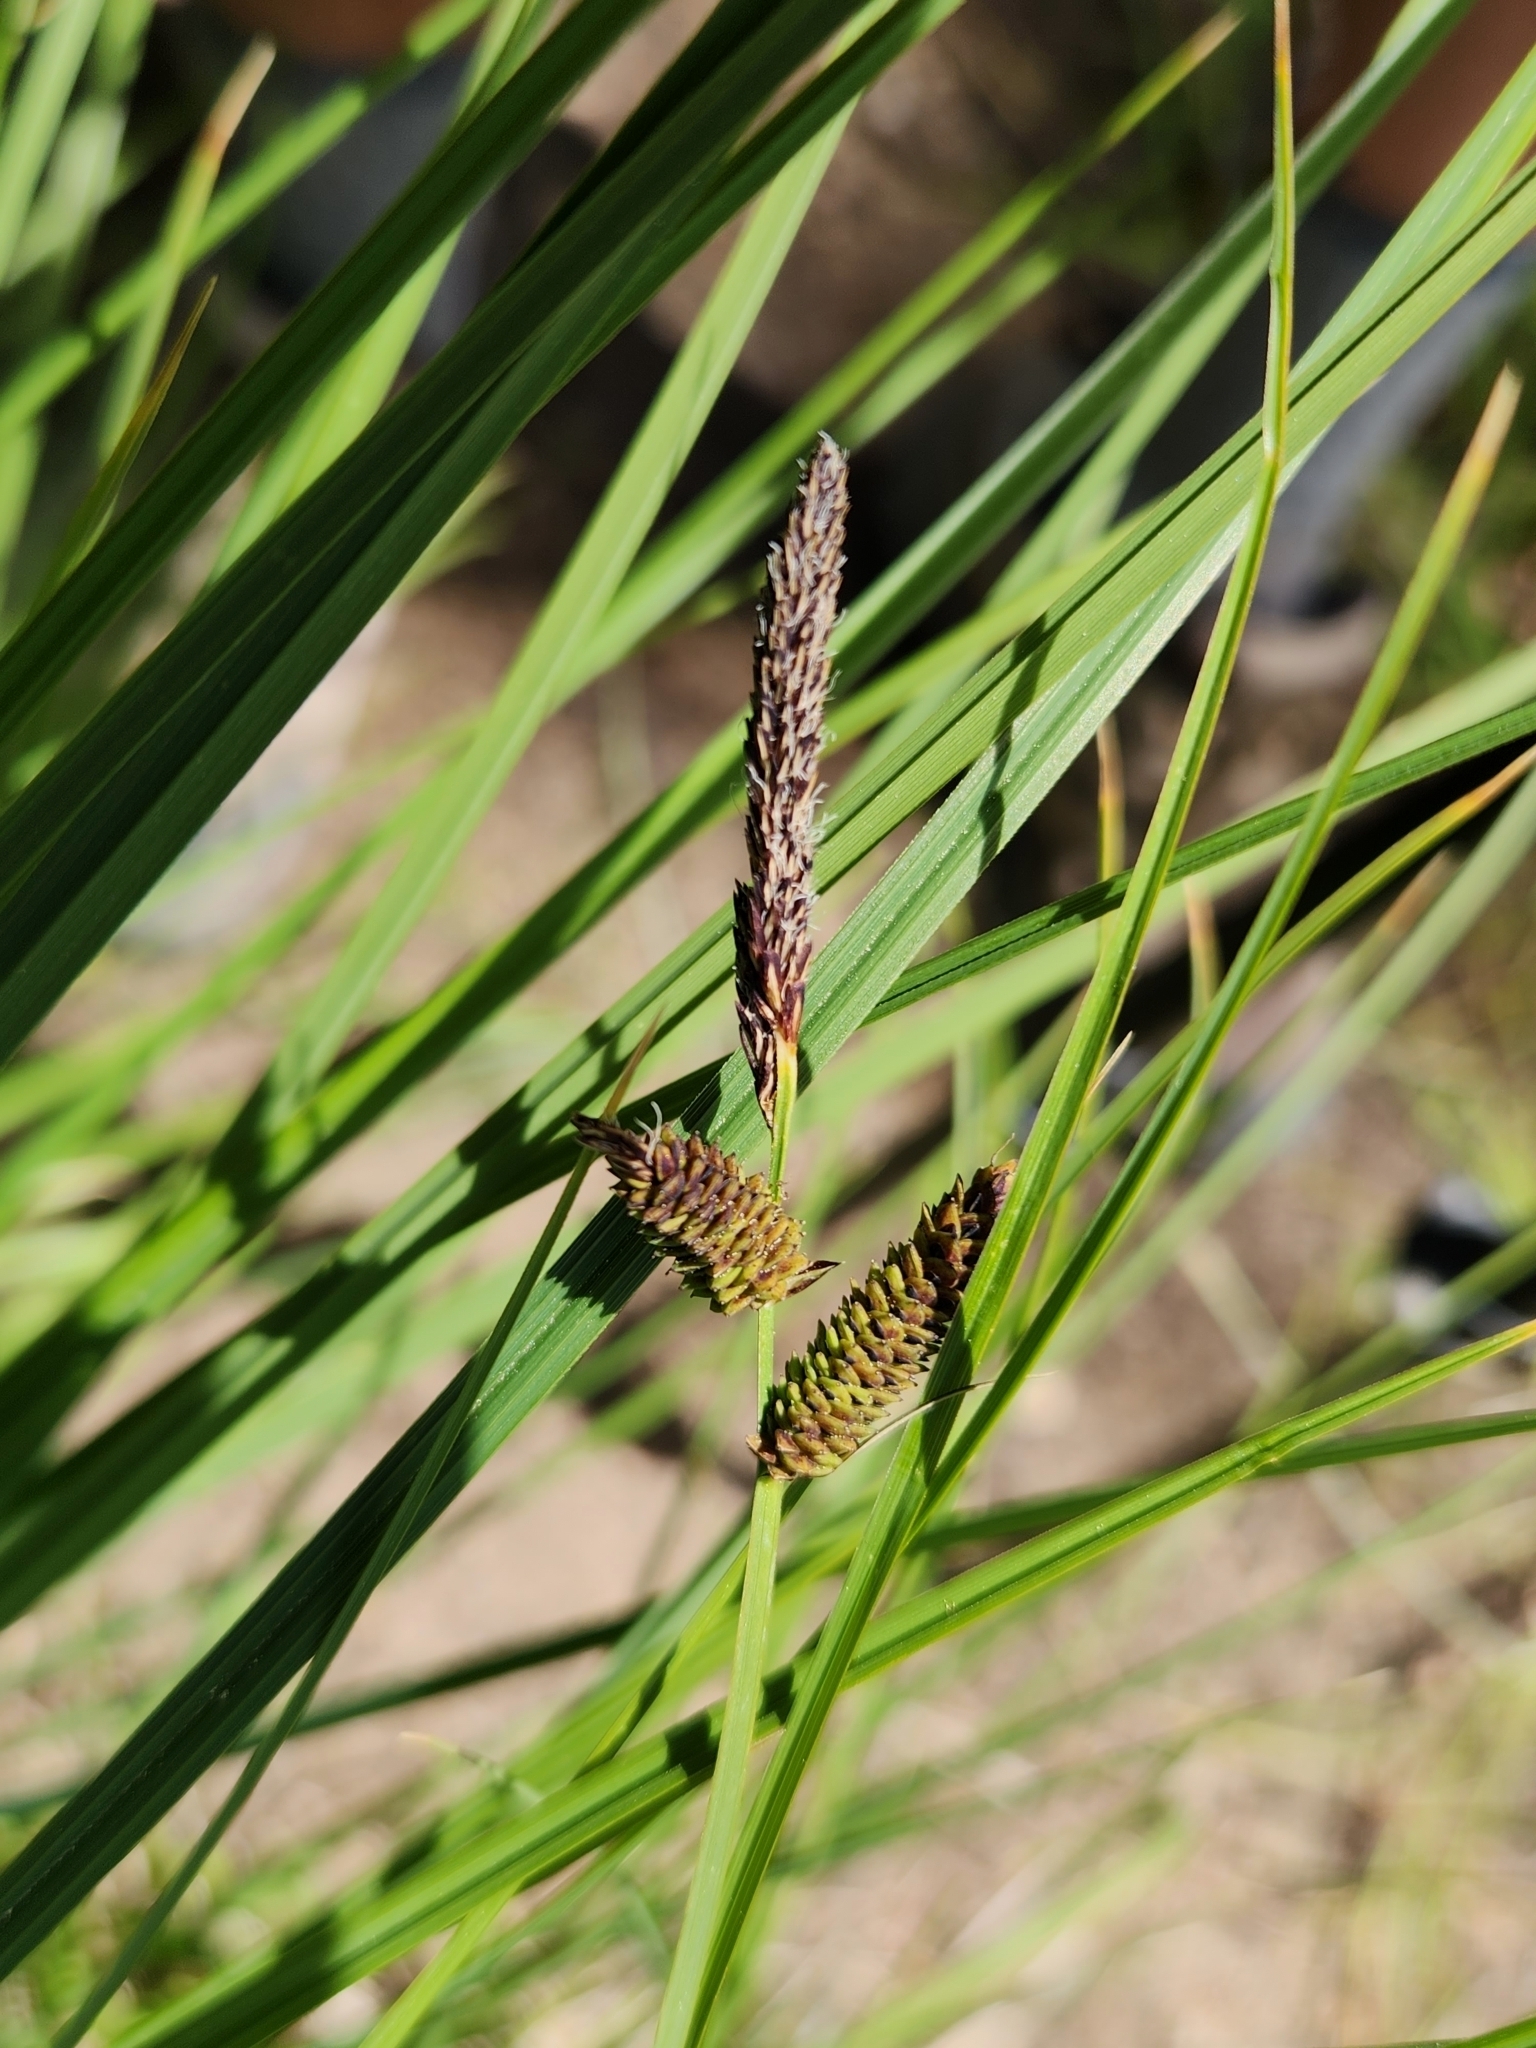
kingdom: Plantae
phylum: Tracheophyta
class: Liliopsida
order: Poales
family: Cyperaceae
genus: Carex
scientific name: Carex senta
